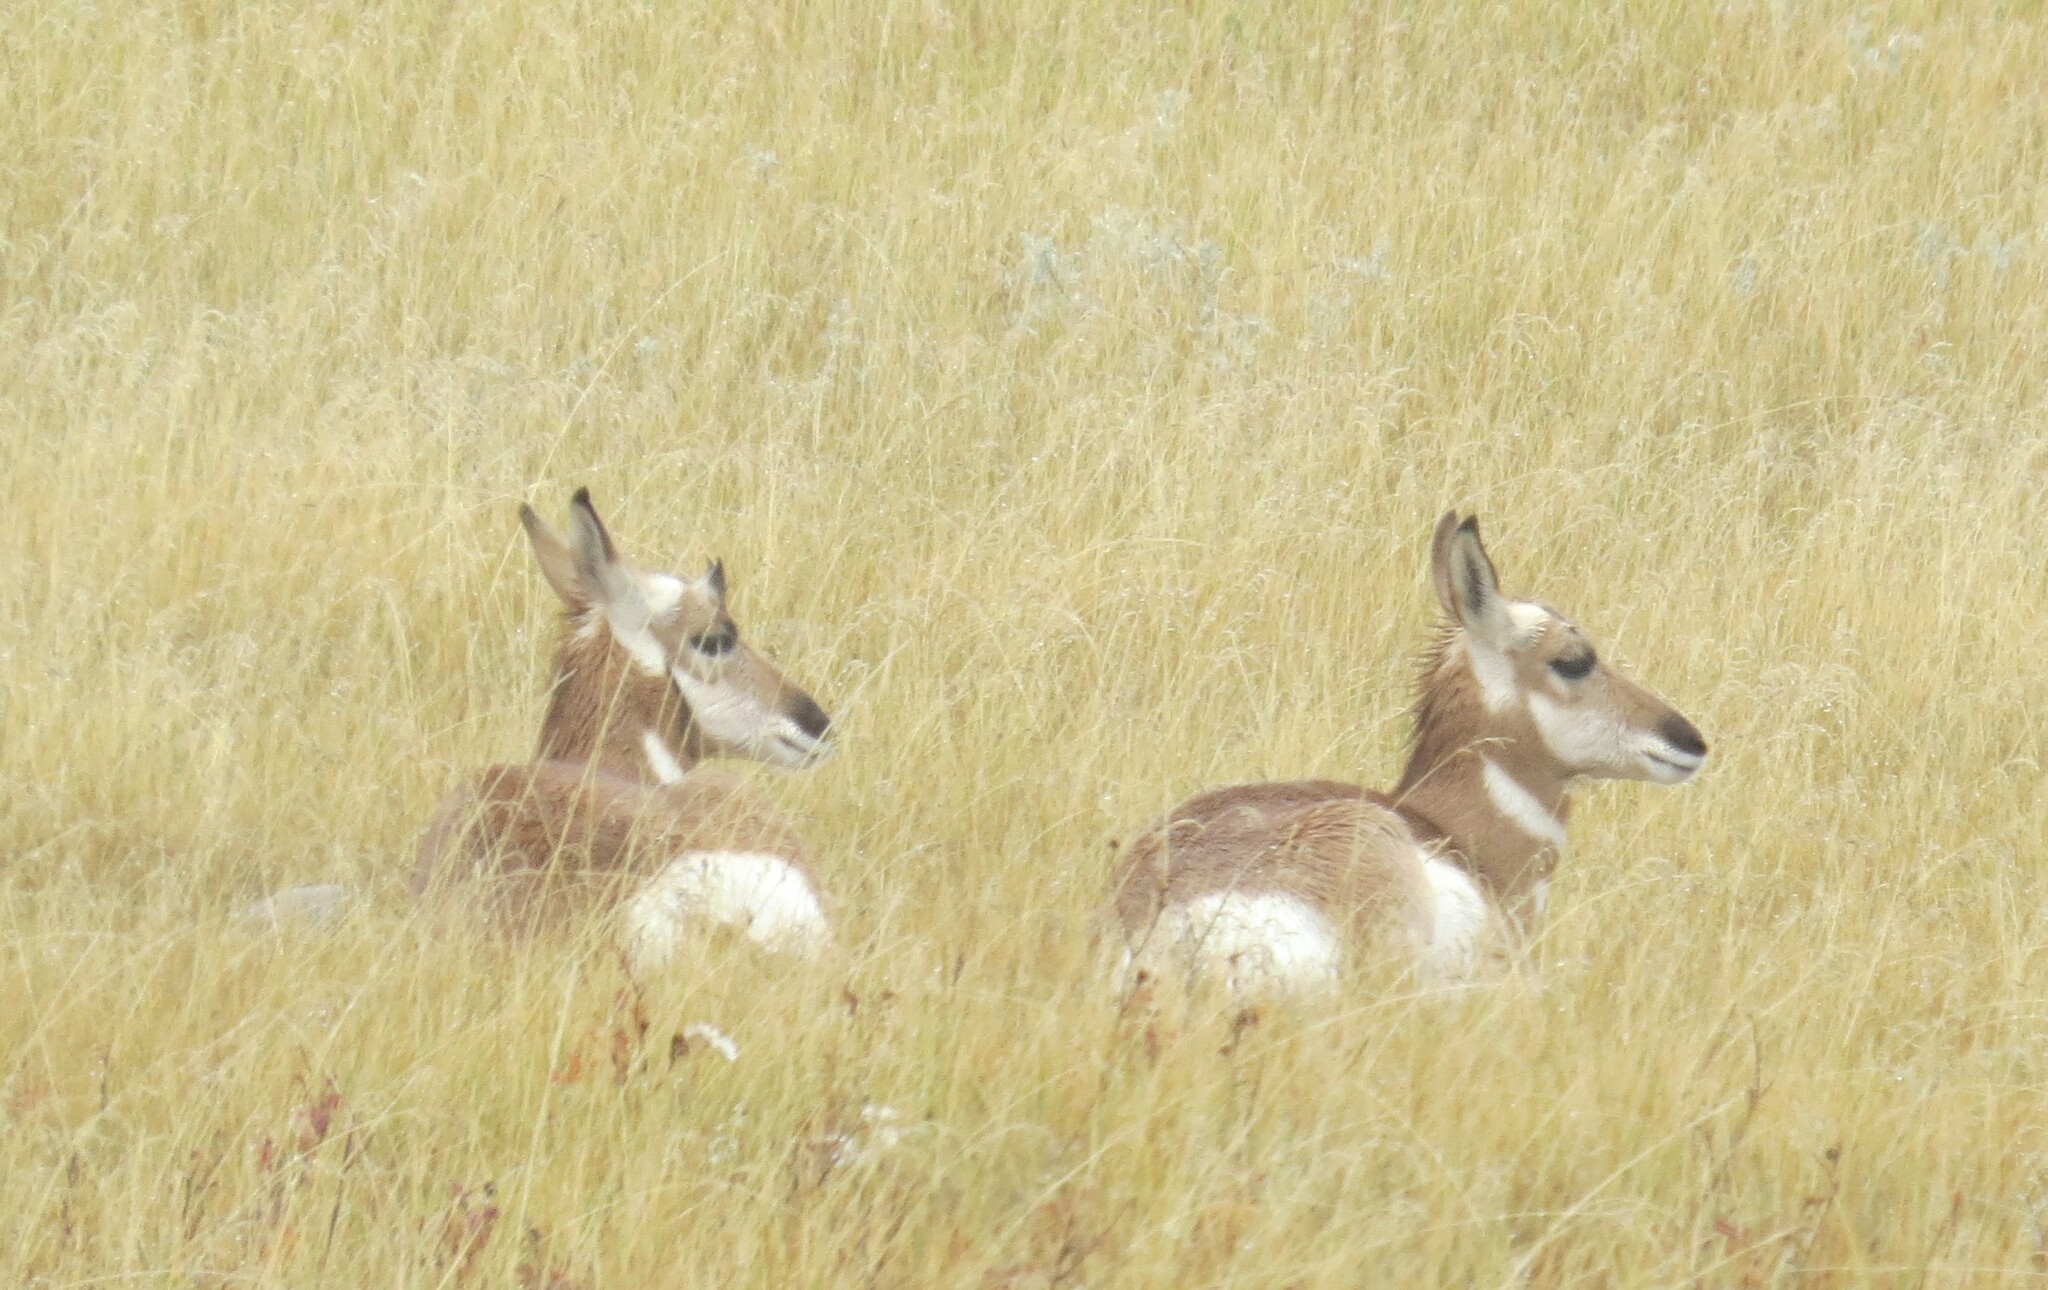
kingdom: Animalia
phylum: Chordata
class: Mammalia
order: Artiodactyla
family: Antilocapridae
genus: Antilocapra
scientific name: Antilocapra americana
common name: Pronghorn
